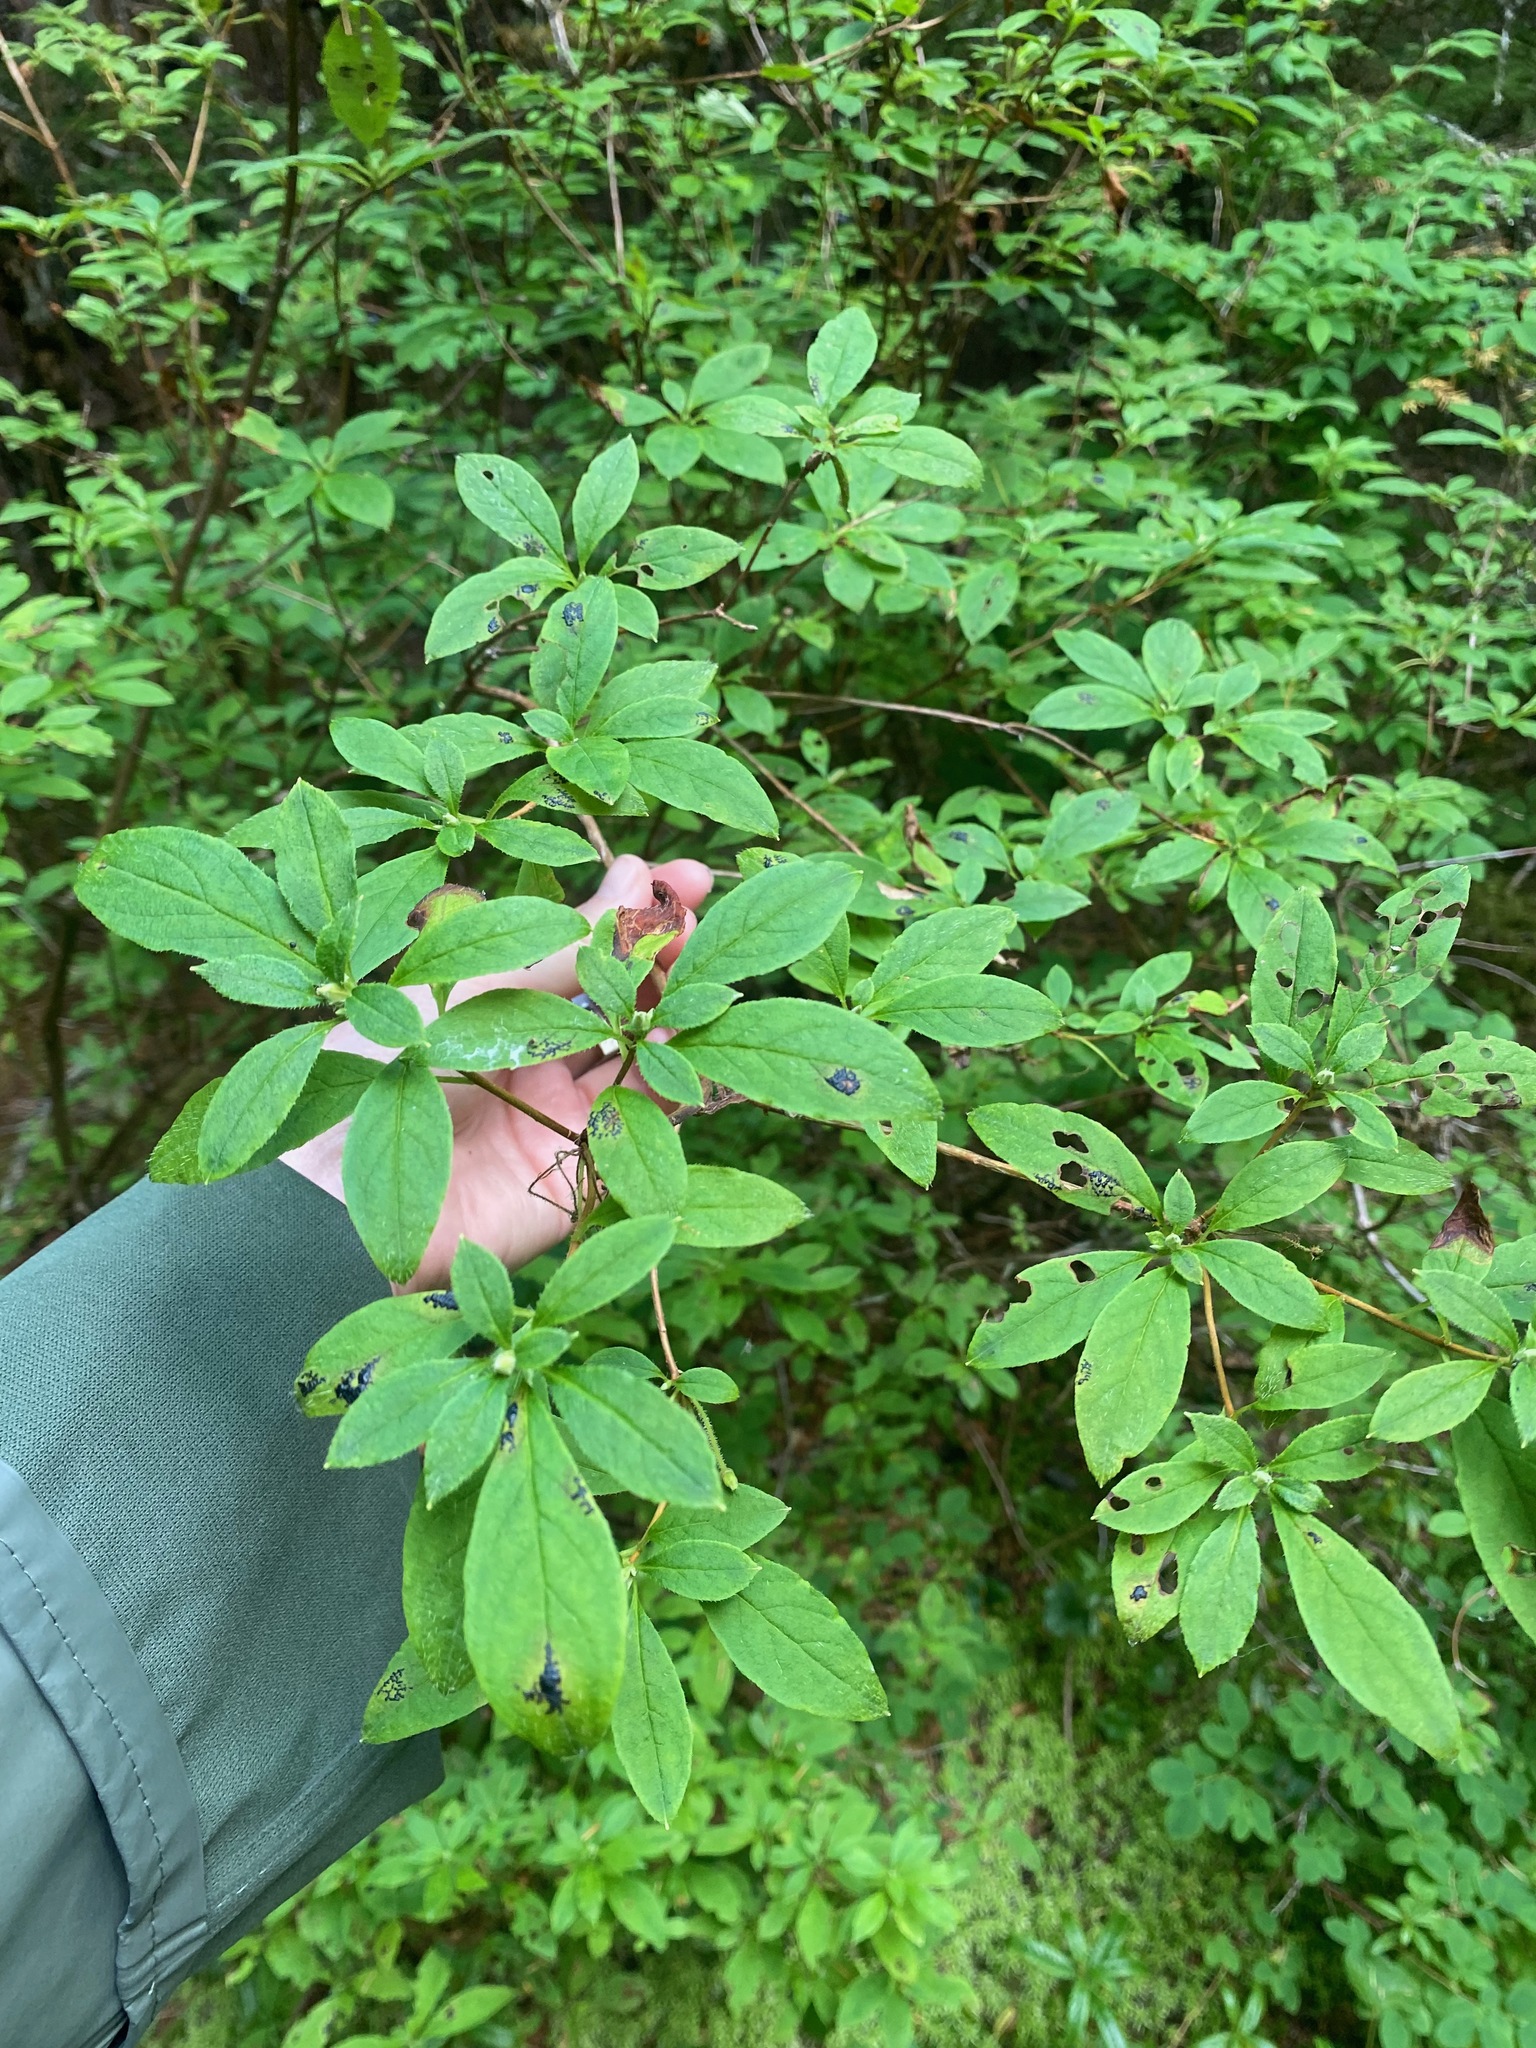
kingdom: Plantae
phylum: Tracheophyta
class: Magnoliopsida
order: Ericales
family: Ericaceae
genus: Rhododendron
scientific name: Rhododendron menziesii
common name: Pacific menziesia
